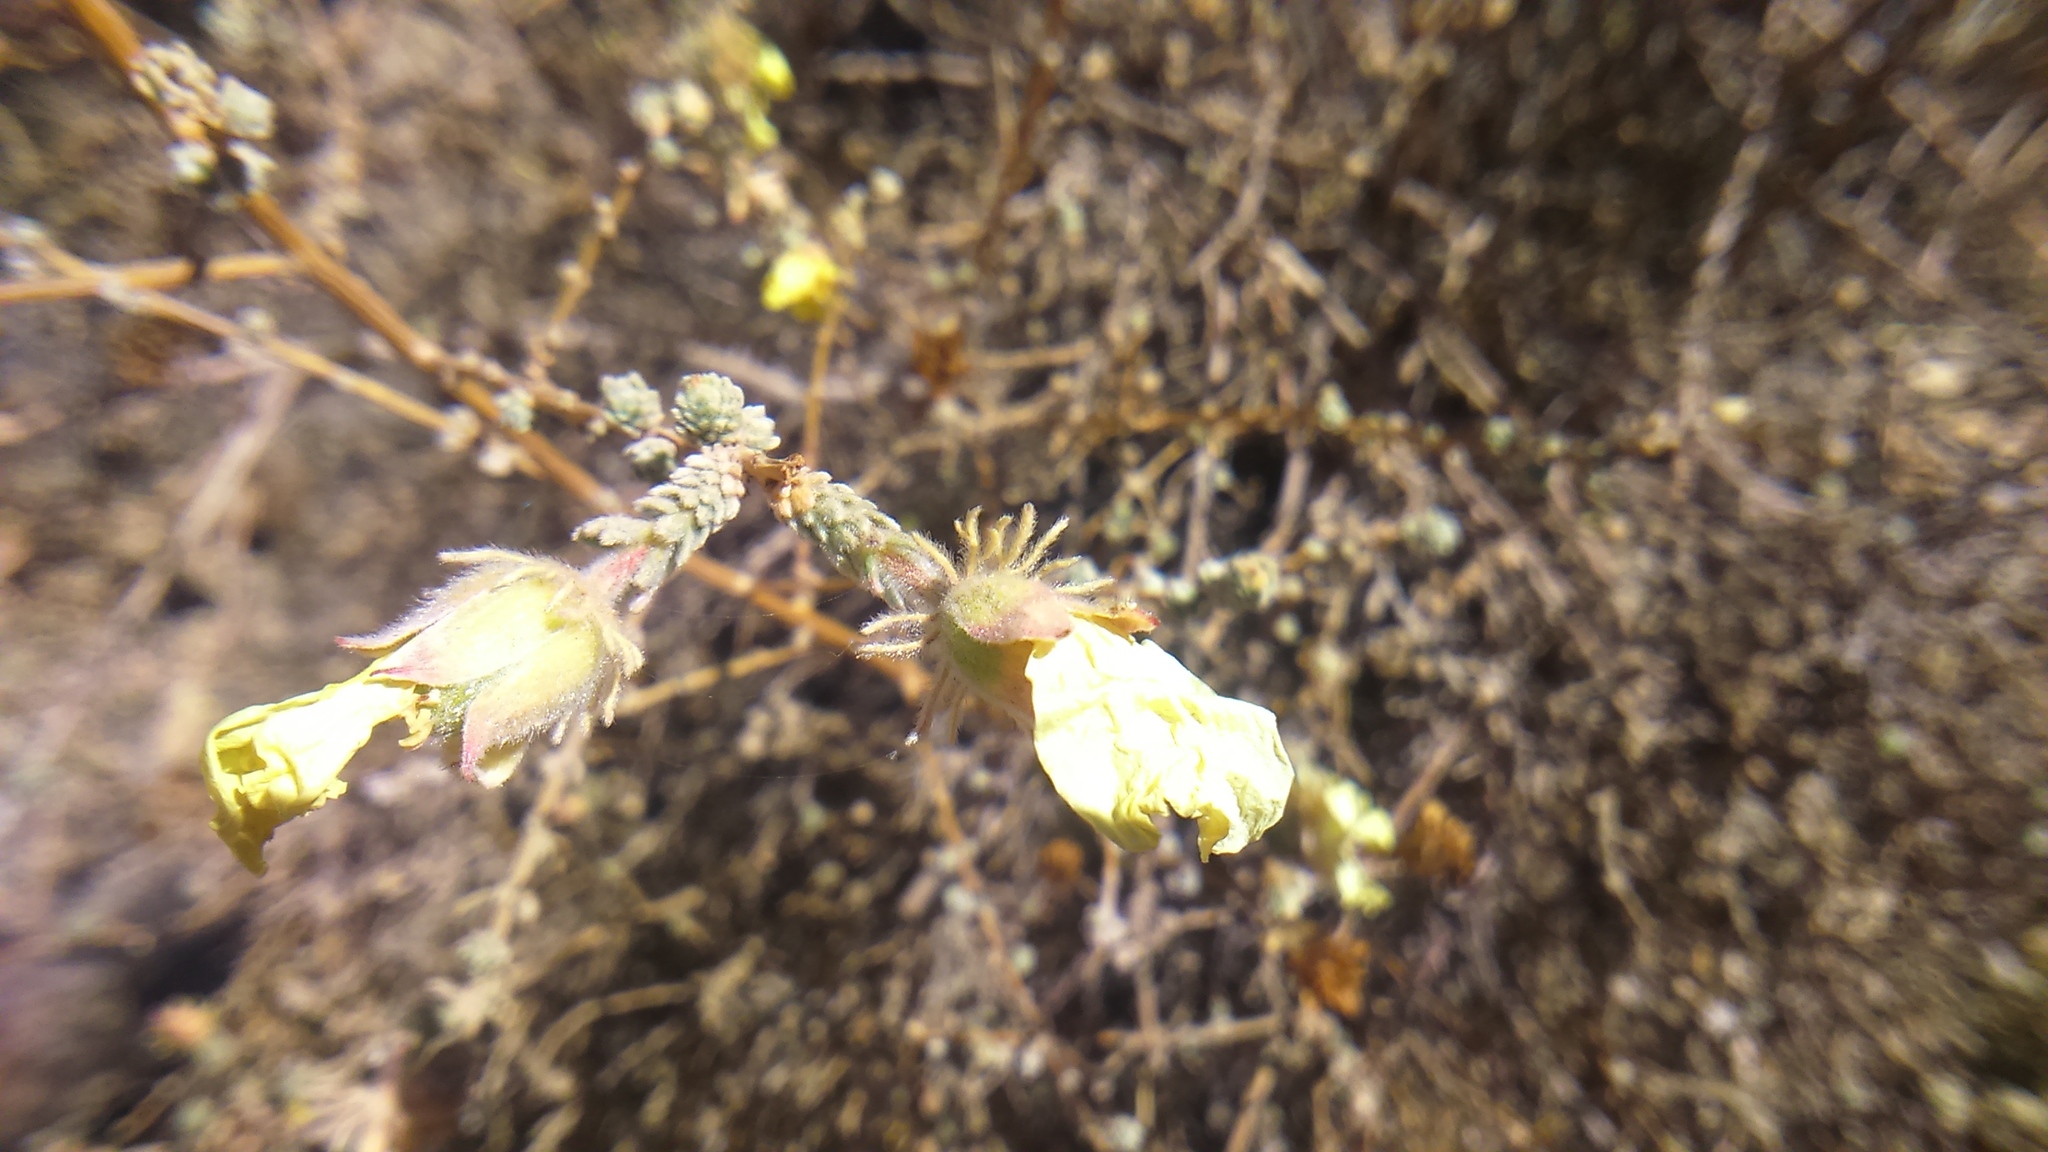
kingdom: Plantae
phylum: Tracheophyta
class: Magnoliopsida
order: Geraniales
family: Vivianiaceae
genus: Balbisia
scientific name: Balbisia verticillata
